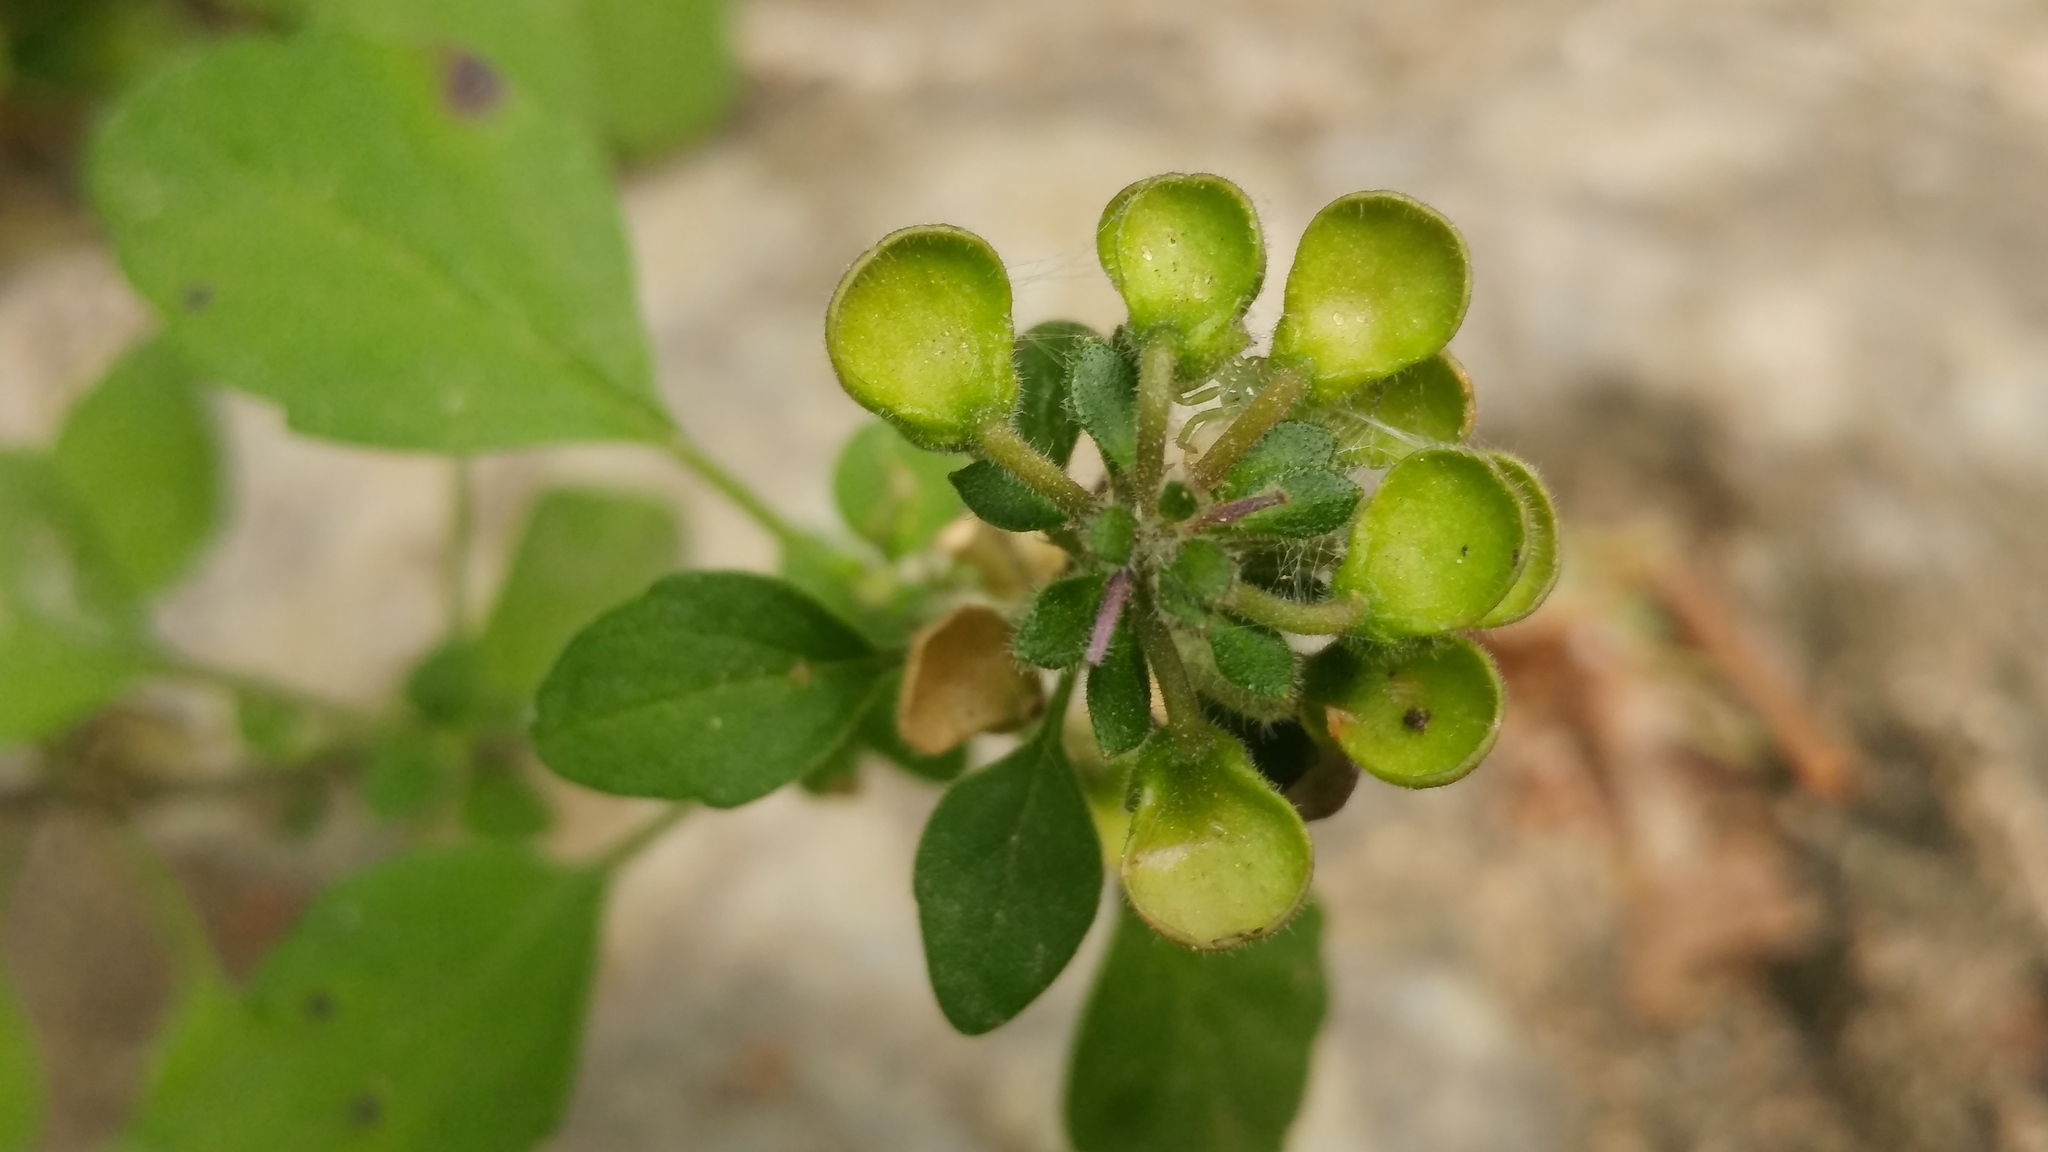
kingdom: Plantae
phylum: Tracheophyta
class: Magnoliopsida
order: Lamiales
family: Lamiaceae
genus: Scutellaria
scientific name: Scutellaria seleriana
